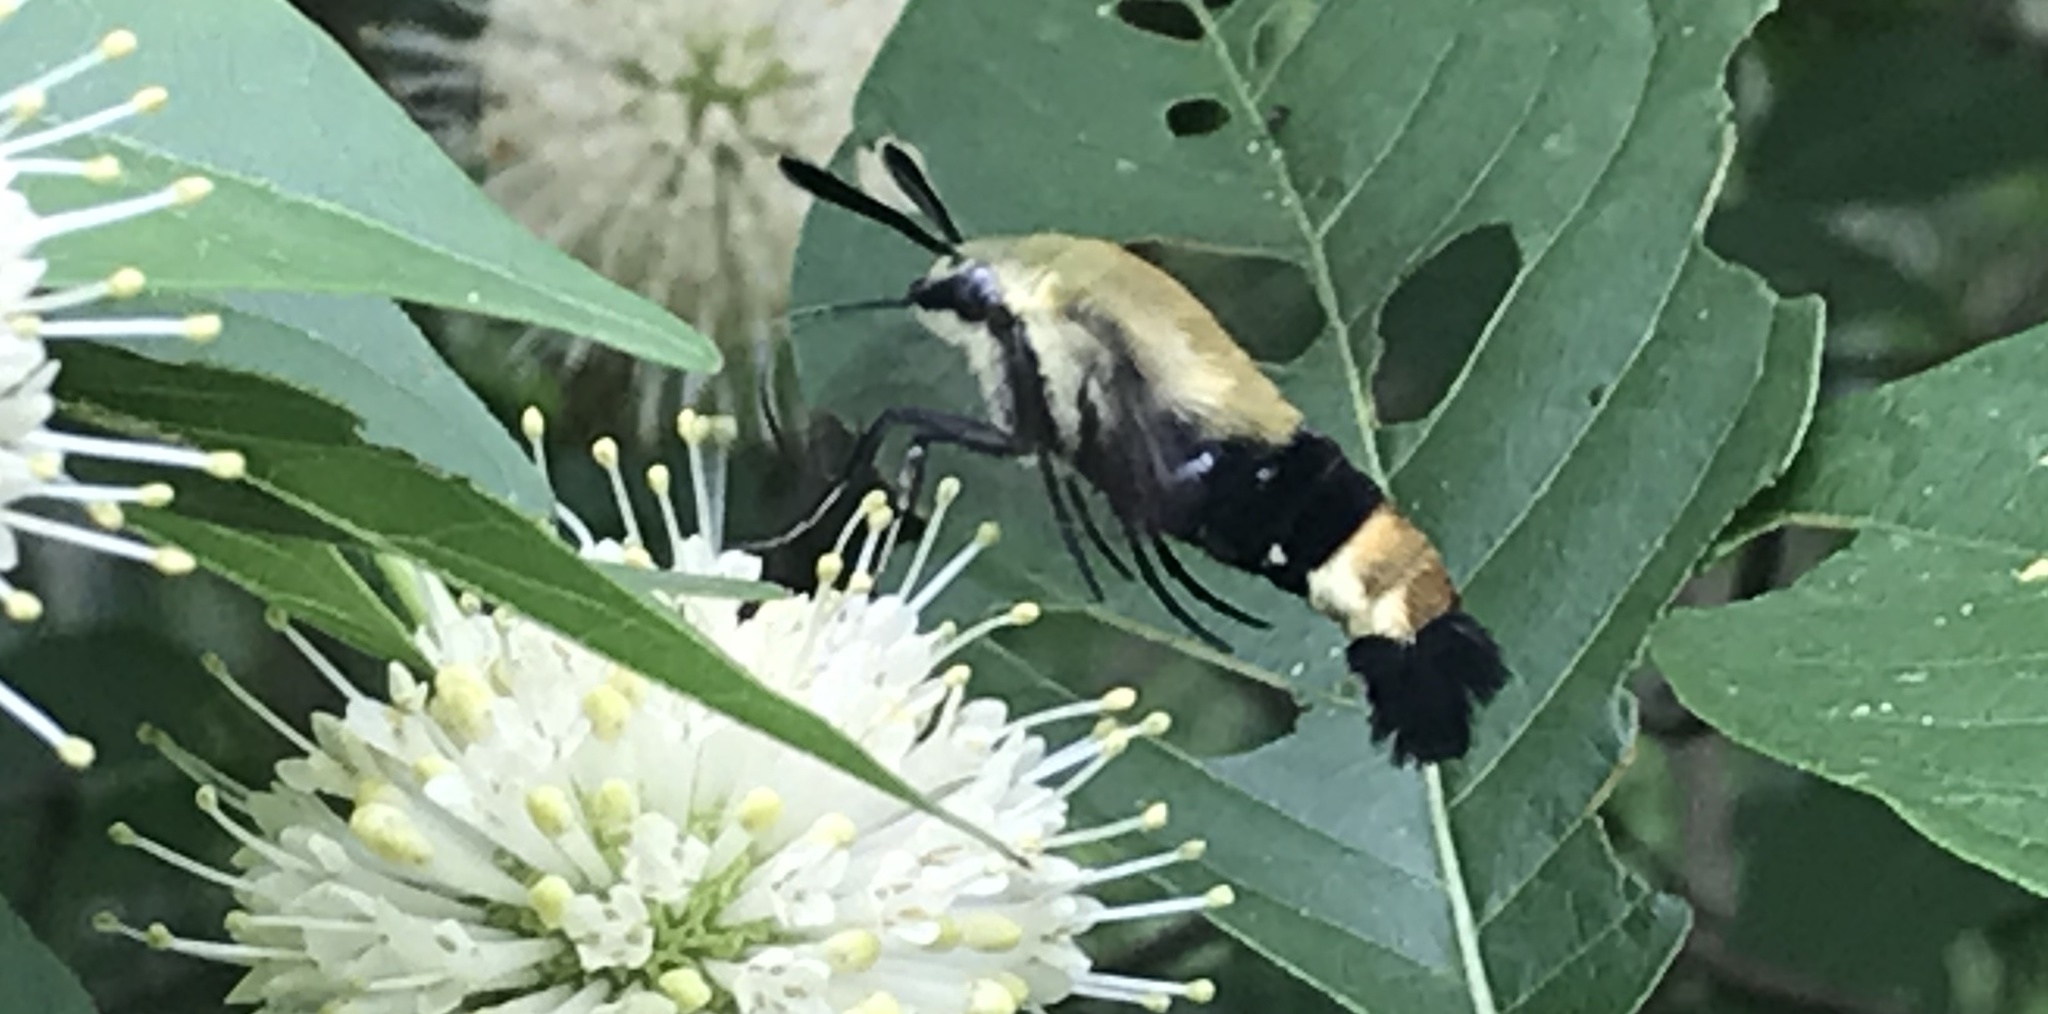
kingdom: Animalia
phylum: Arthropoda
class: Insecta
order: Lepidoptera
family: Sphingidae
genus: Hemaris
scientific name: Hemaris diffinis
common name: Bumblebee moth
